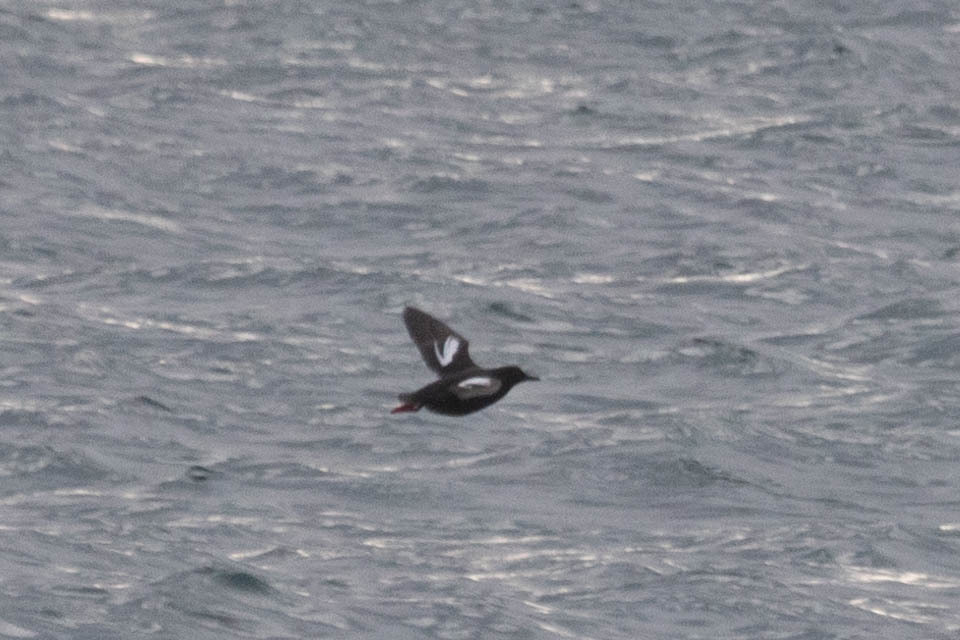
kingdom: Animalia
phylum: Chordata
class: Aves
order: Charadriiformes
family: Alcidae
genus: Cepphus
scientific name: Cepphus columba
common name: Pigeon guillemot
